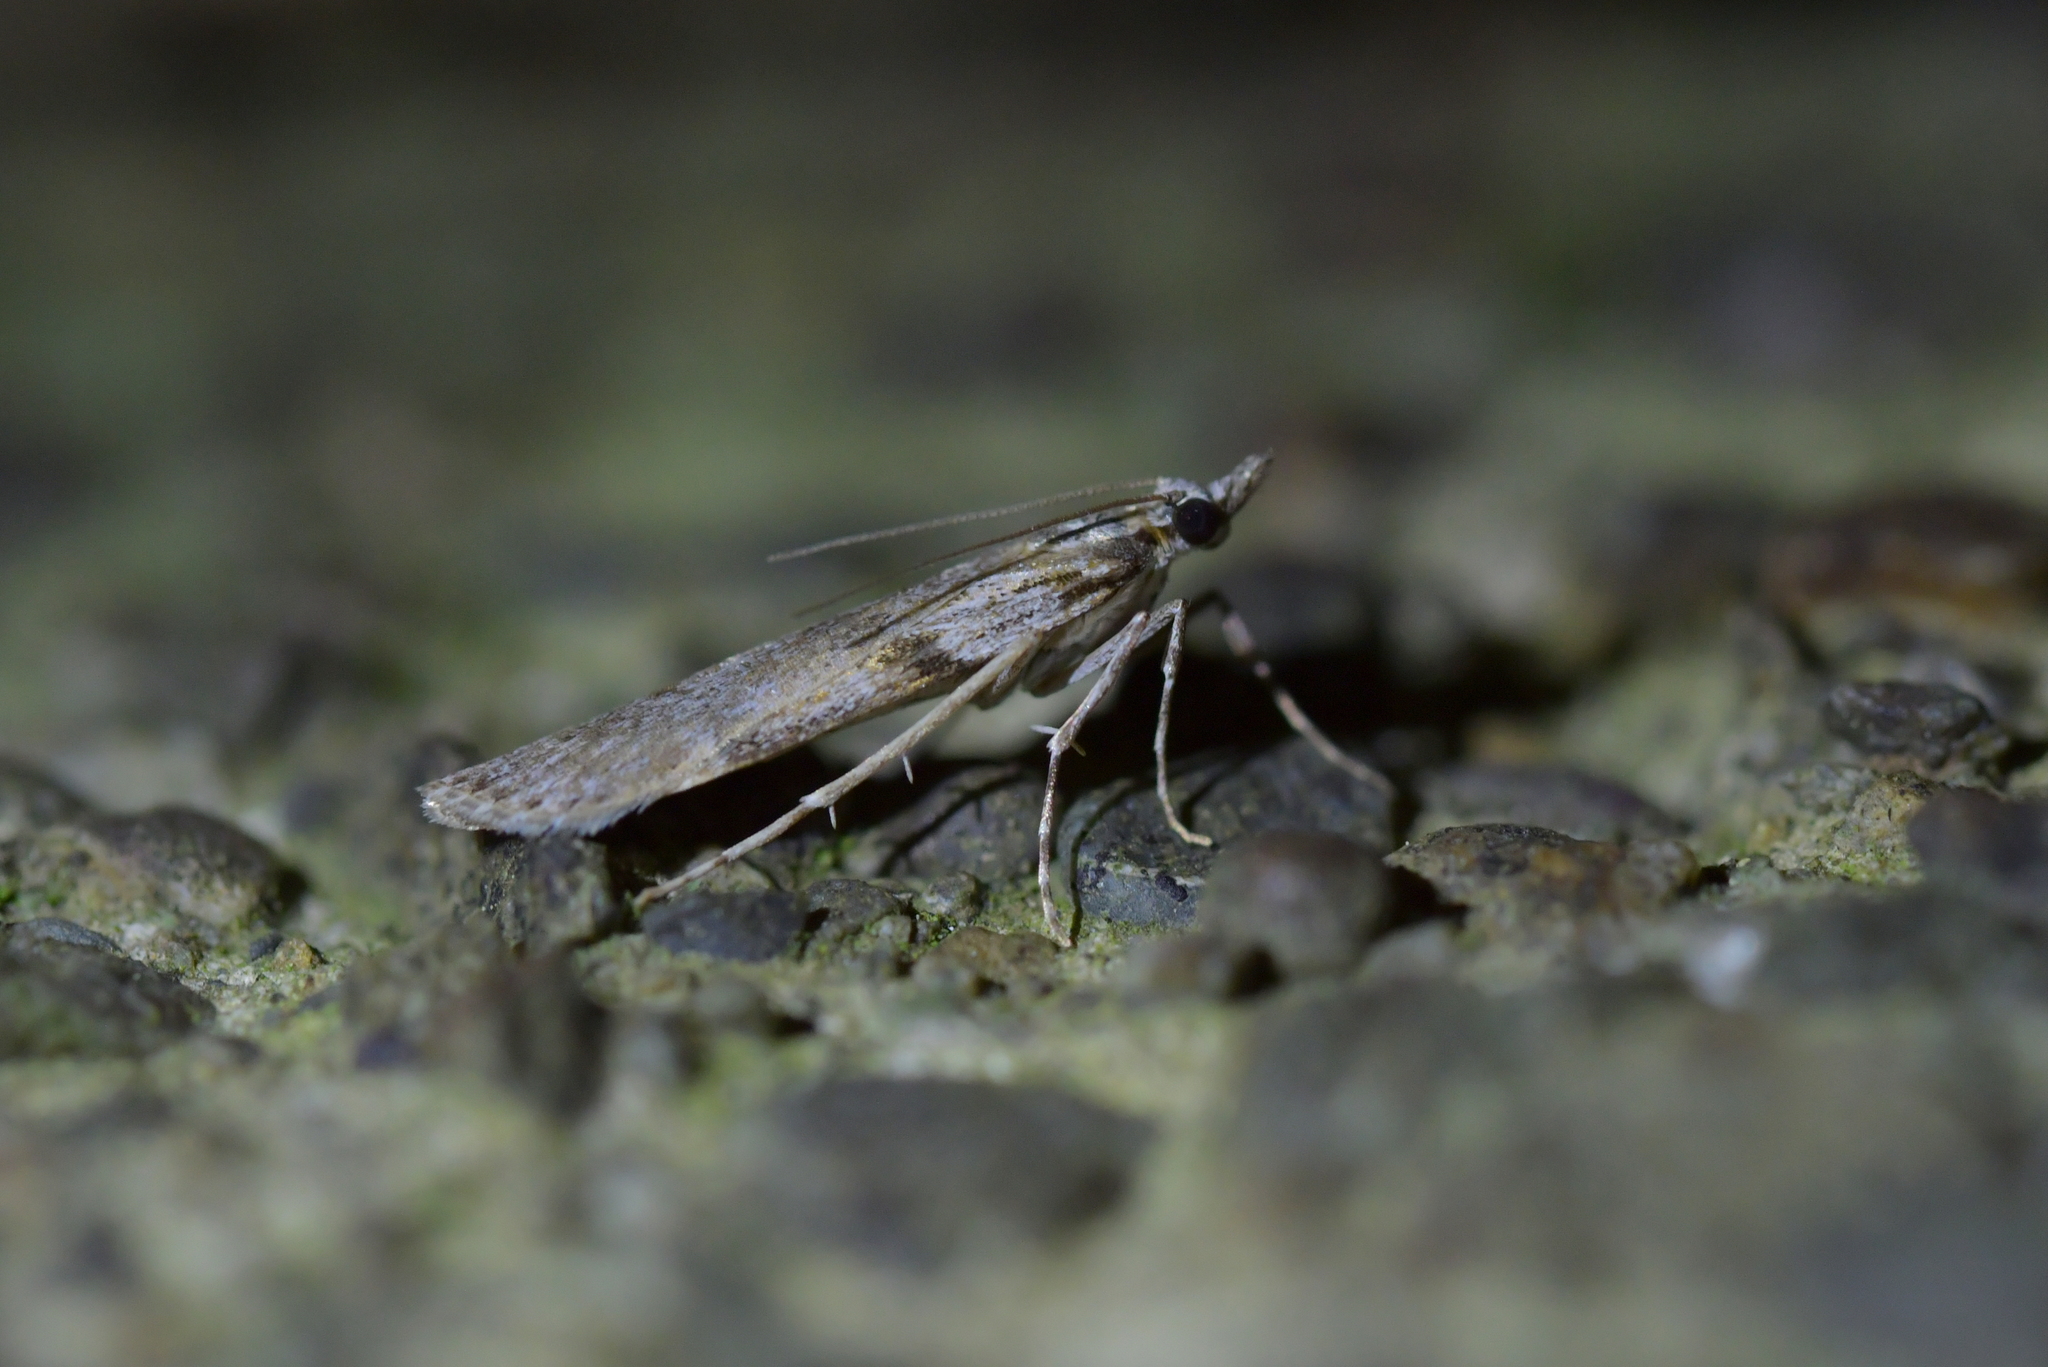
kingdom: Animalia
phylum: Arthropoda
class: Insecta
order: Lepidoptera
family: Crambidae
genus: Scoparia
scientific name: Scoparia halopis
